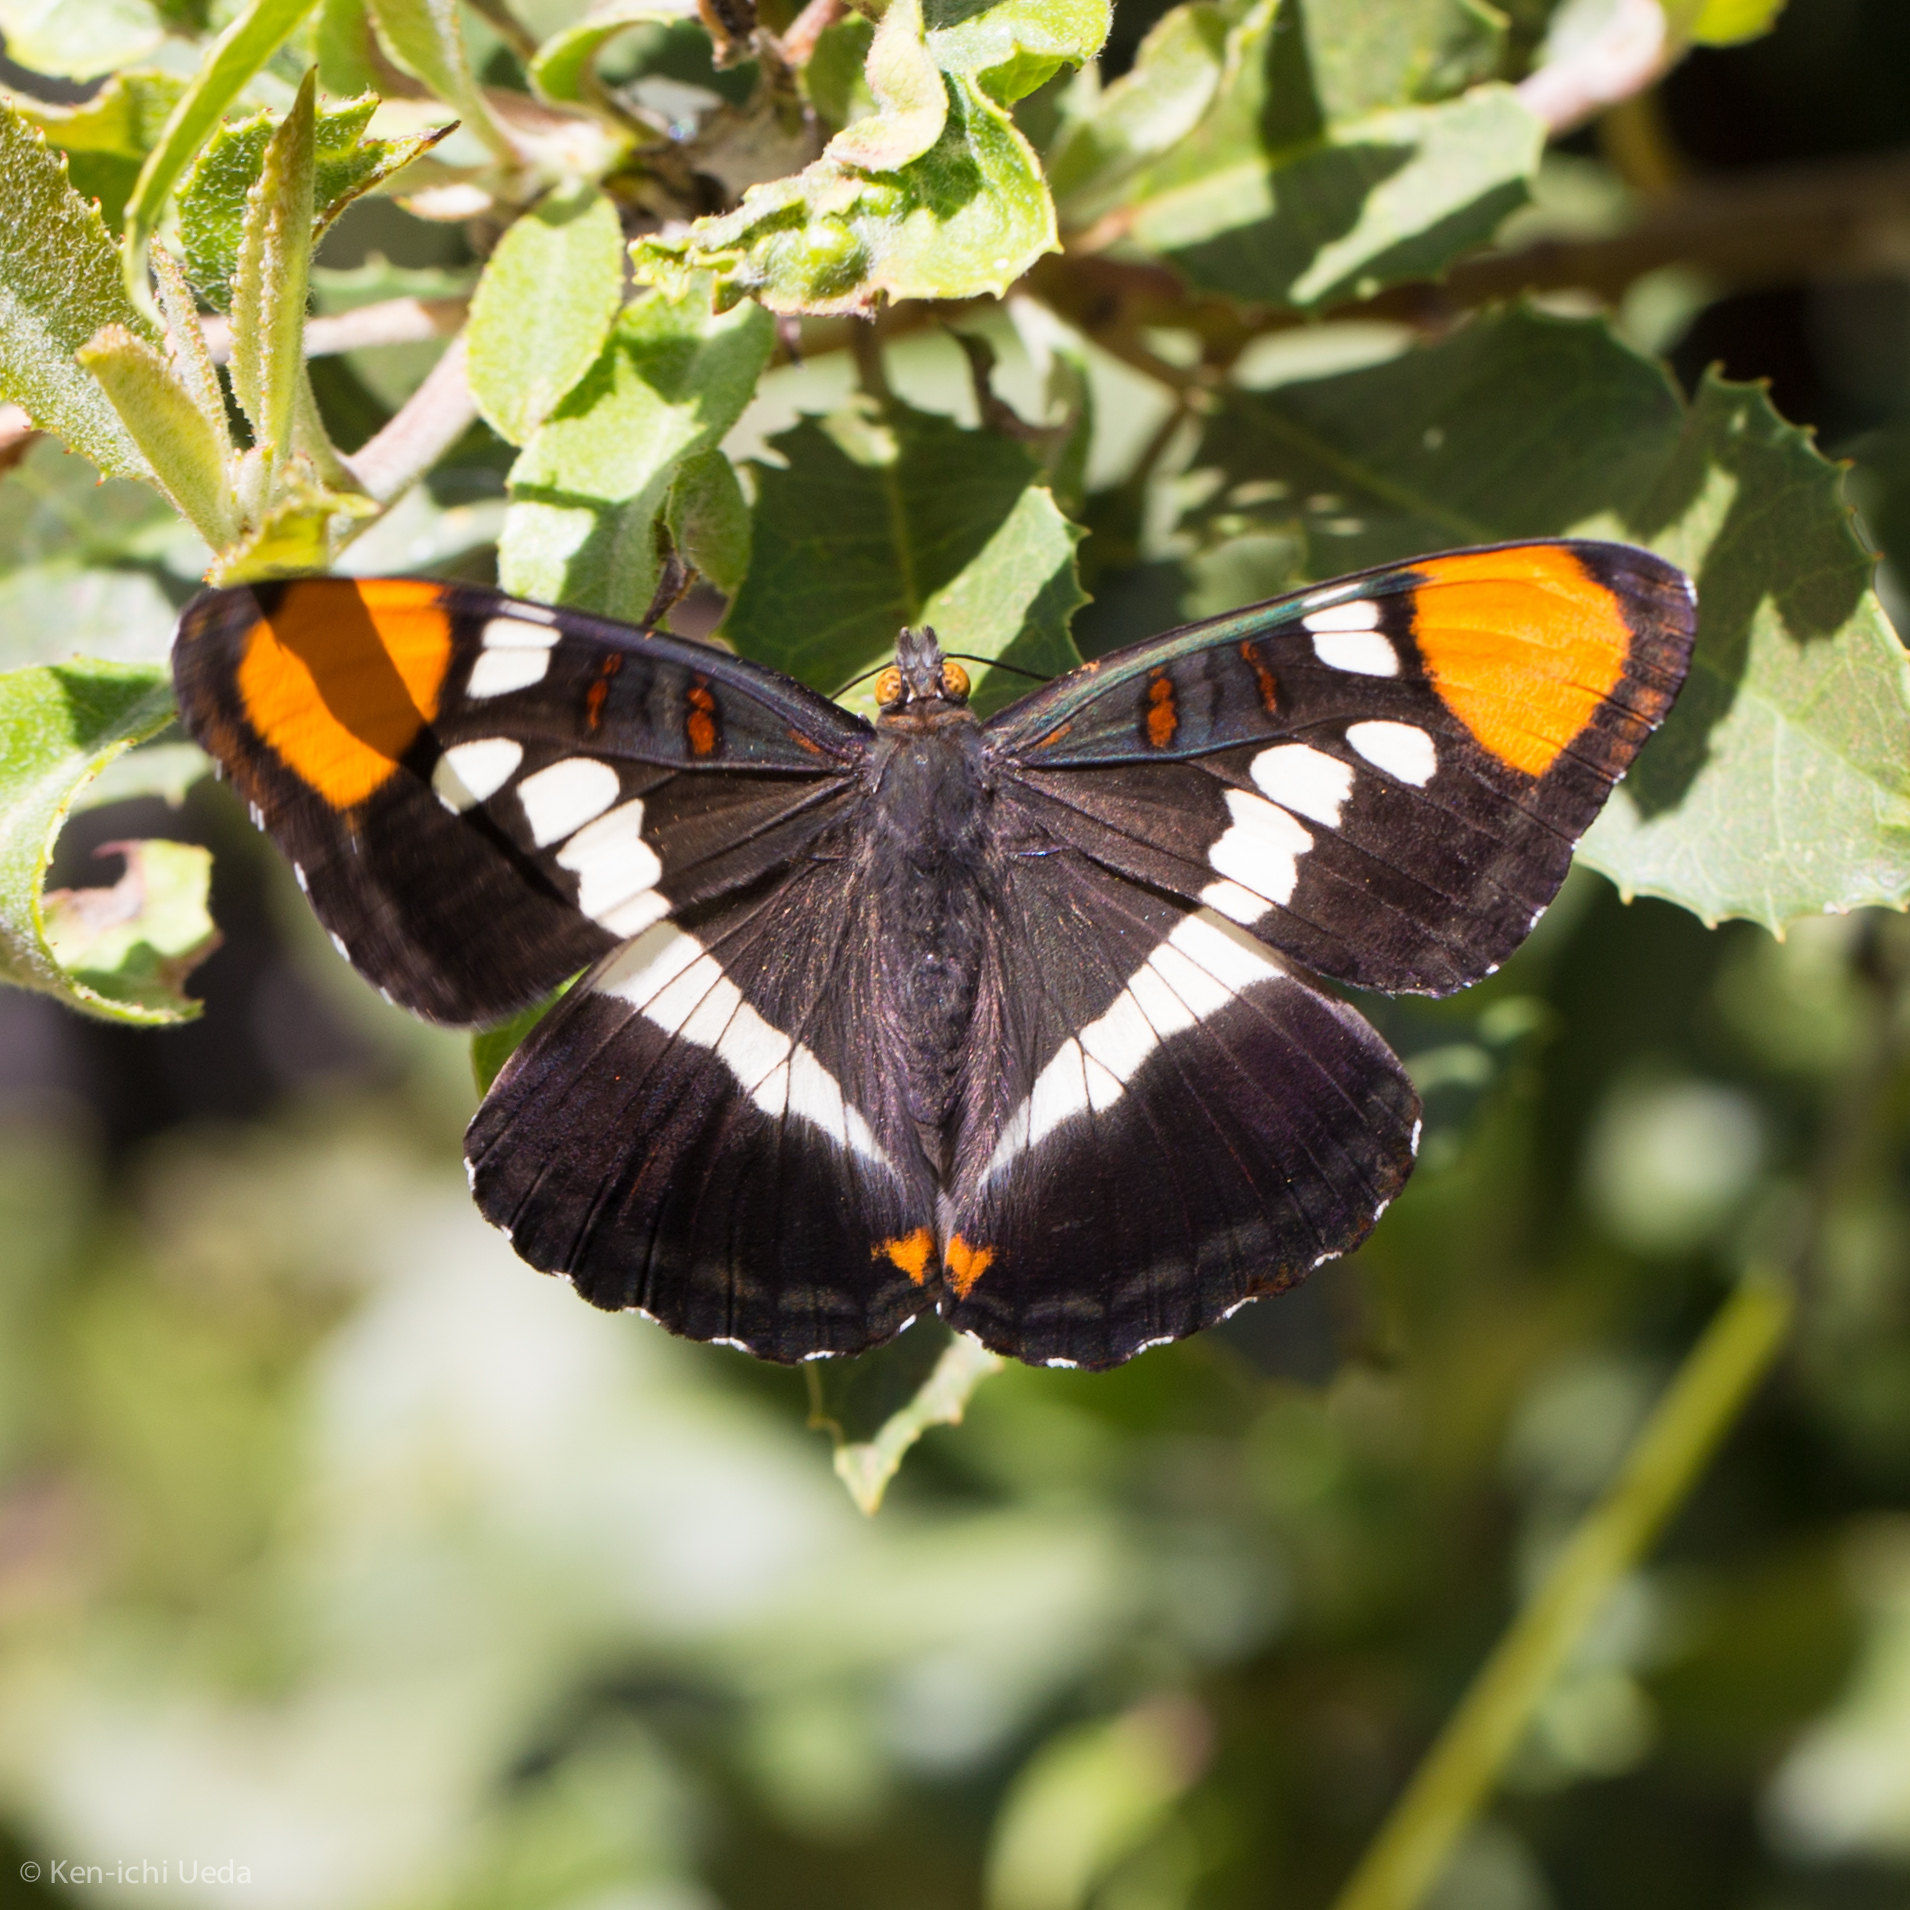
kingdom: Animalia
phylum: Arthropoda
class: Insecta
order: Lepidoptera
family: Nymphalidae
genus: Limenitis
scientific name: Limenitis bredowii
